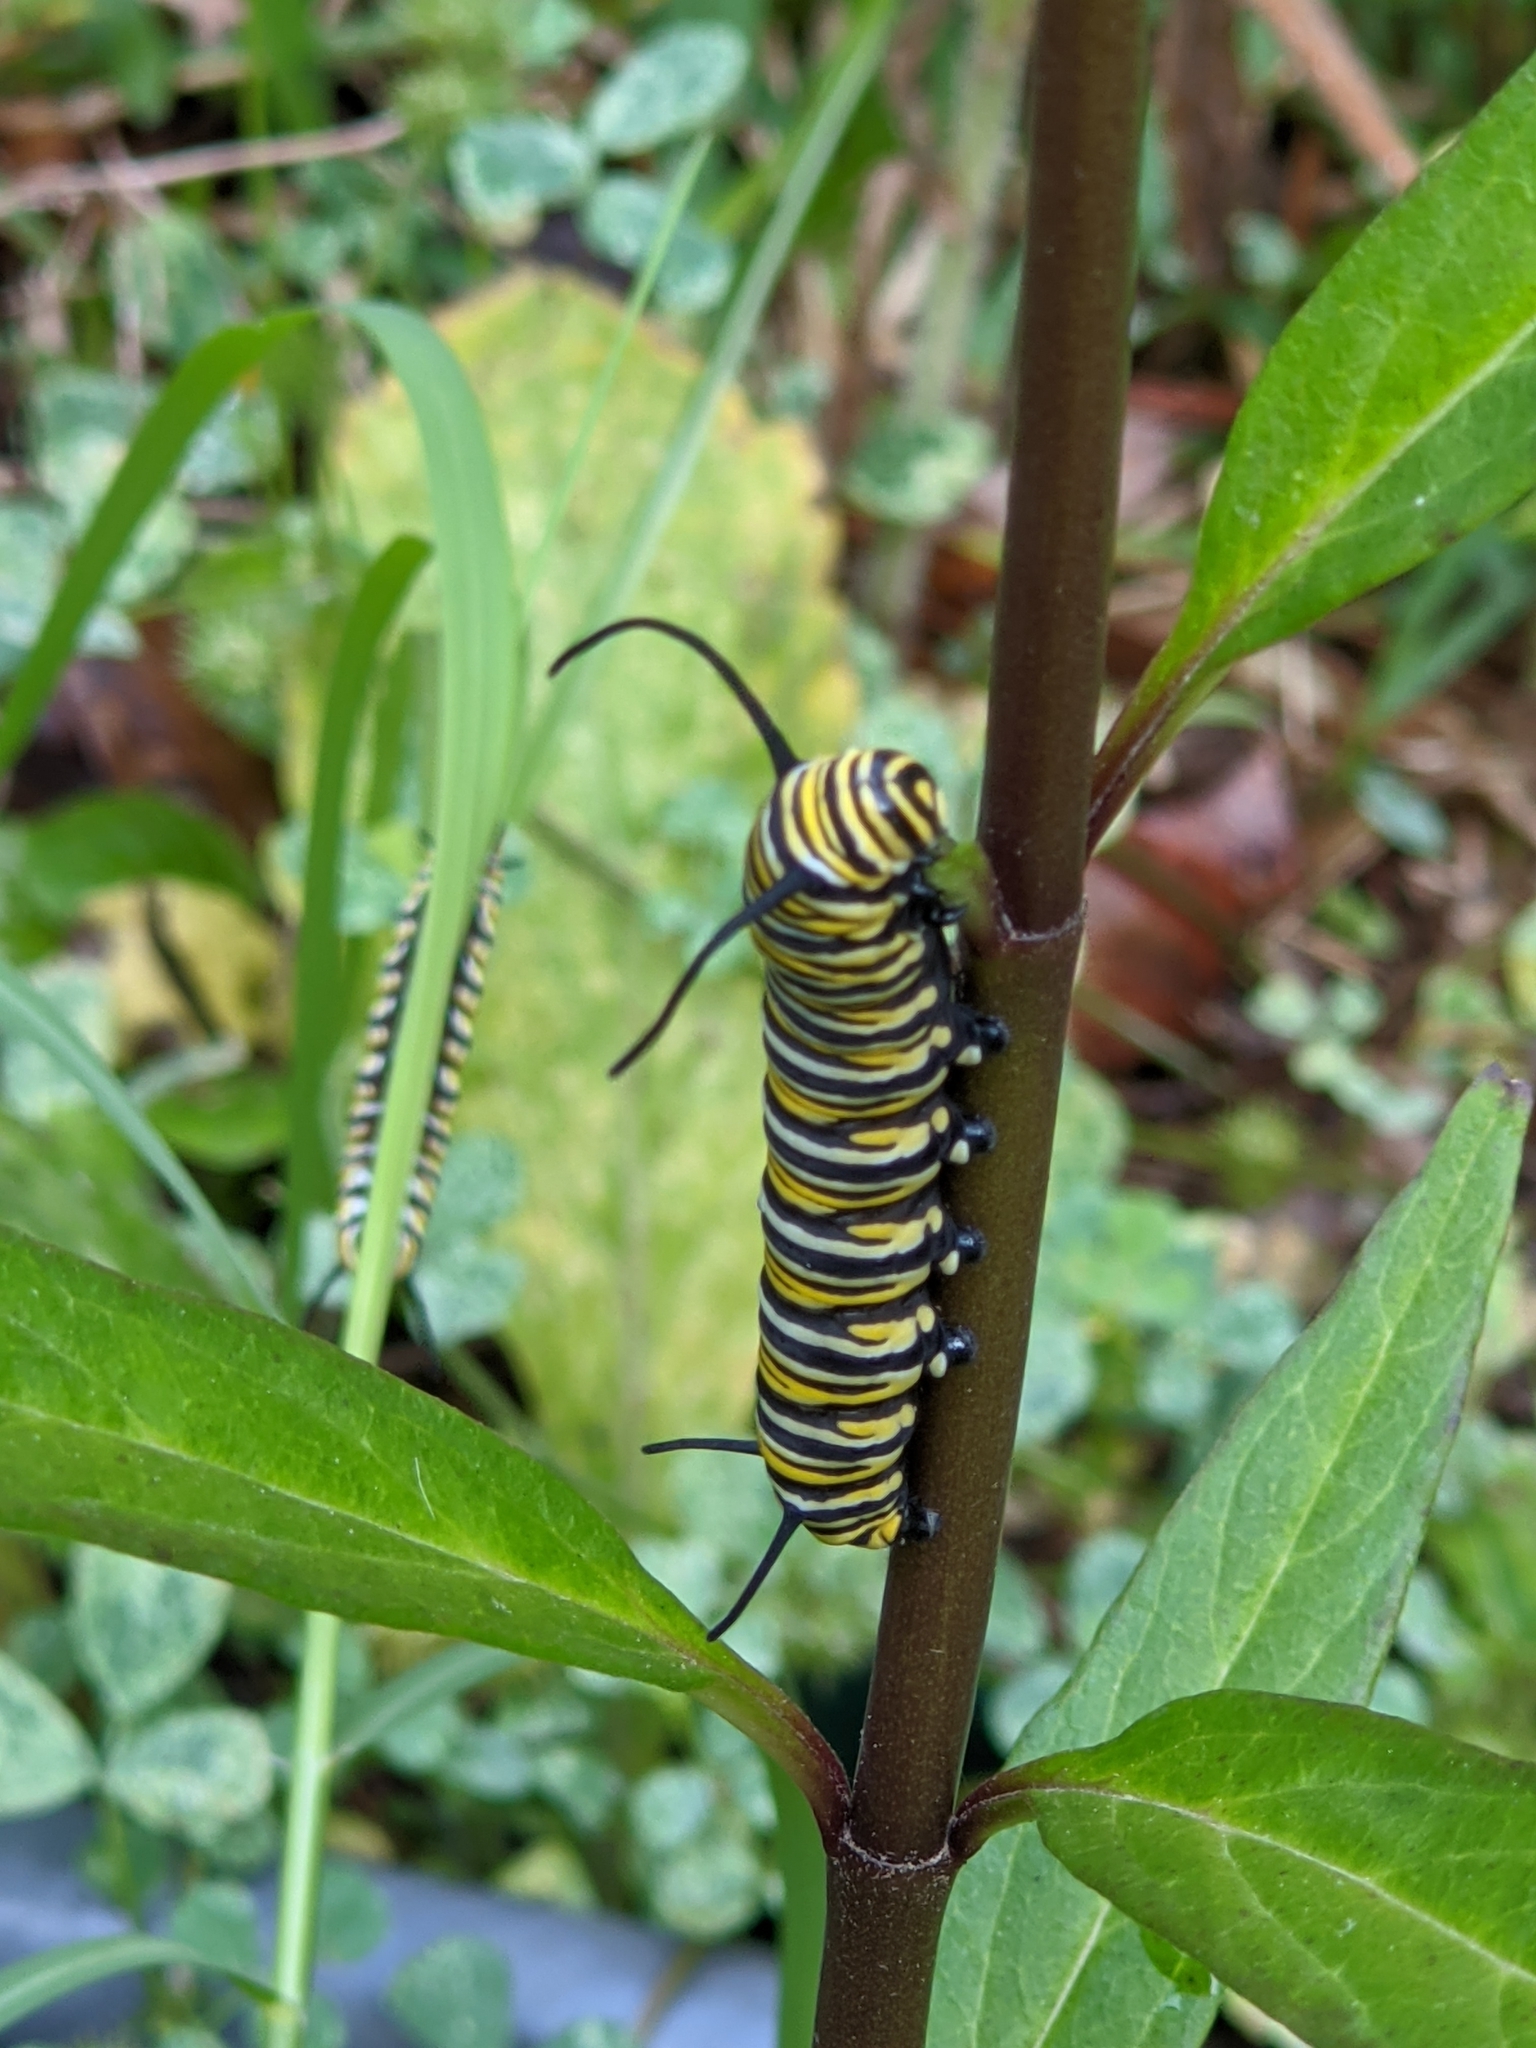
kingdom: Animalia
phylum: Arthropoda
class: Insecta
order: Lepidoptera
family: Nymphalidae
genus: Danaus
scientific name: Danaus plexippus
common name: Monarch
